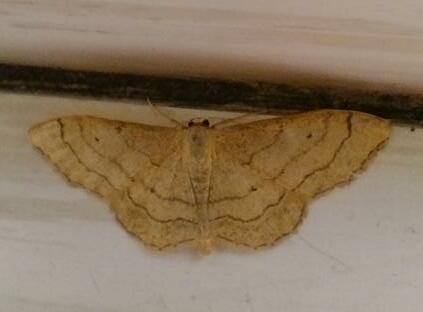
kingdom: Animalia
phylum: Arthropoda
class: Insecta
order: Lepidoptera
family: Geometridae
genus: Idaea
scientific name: Idaea aversata
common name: Riband wave
